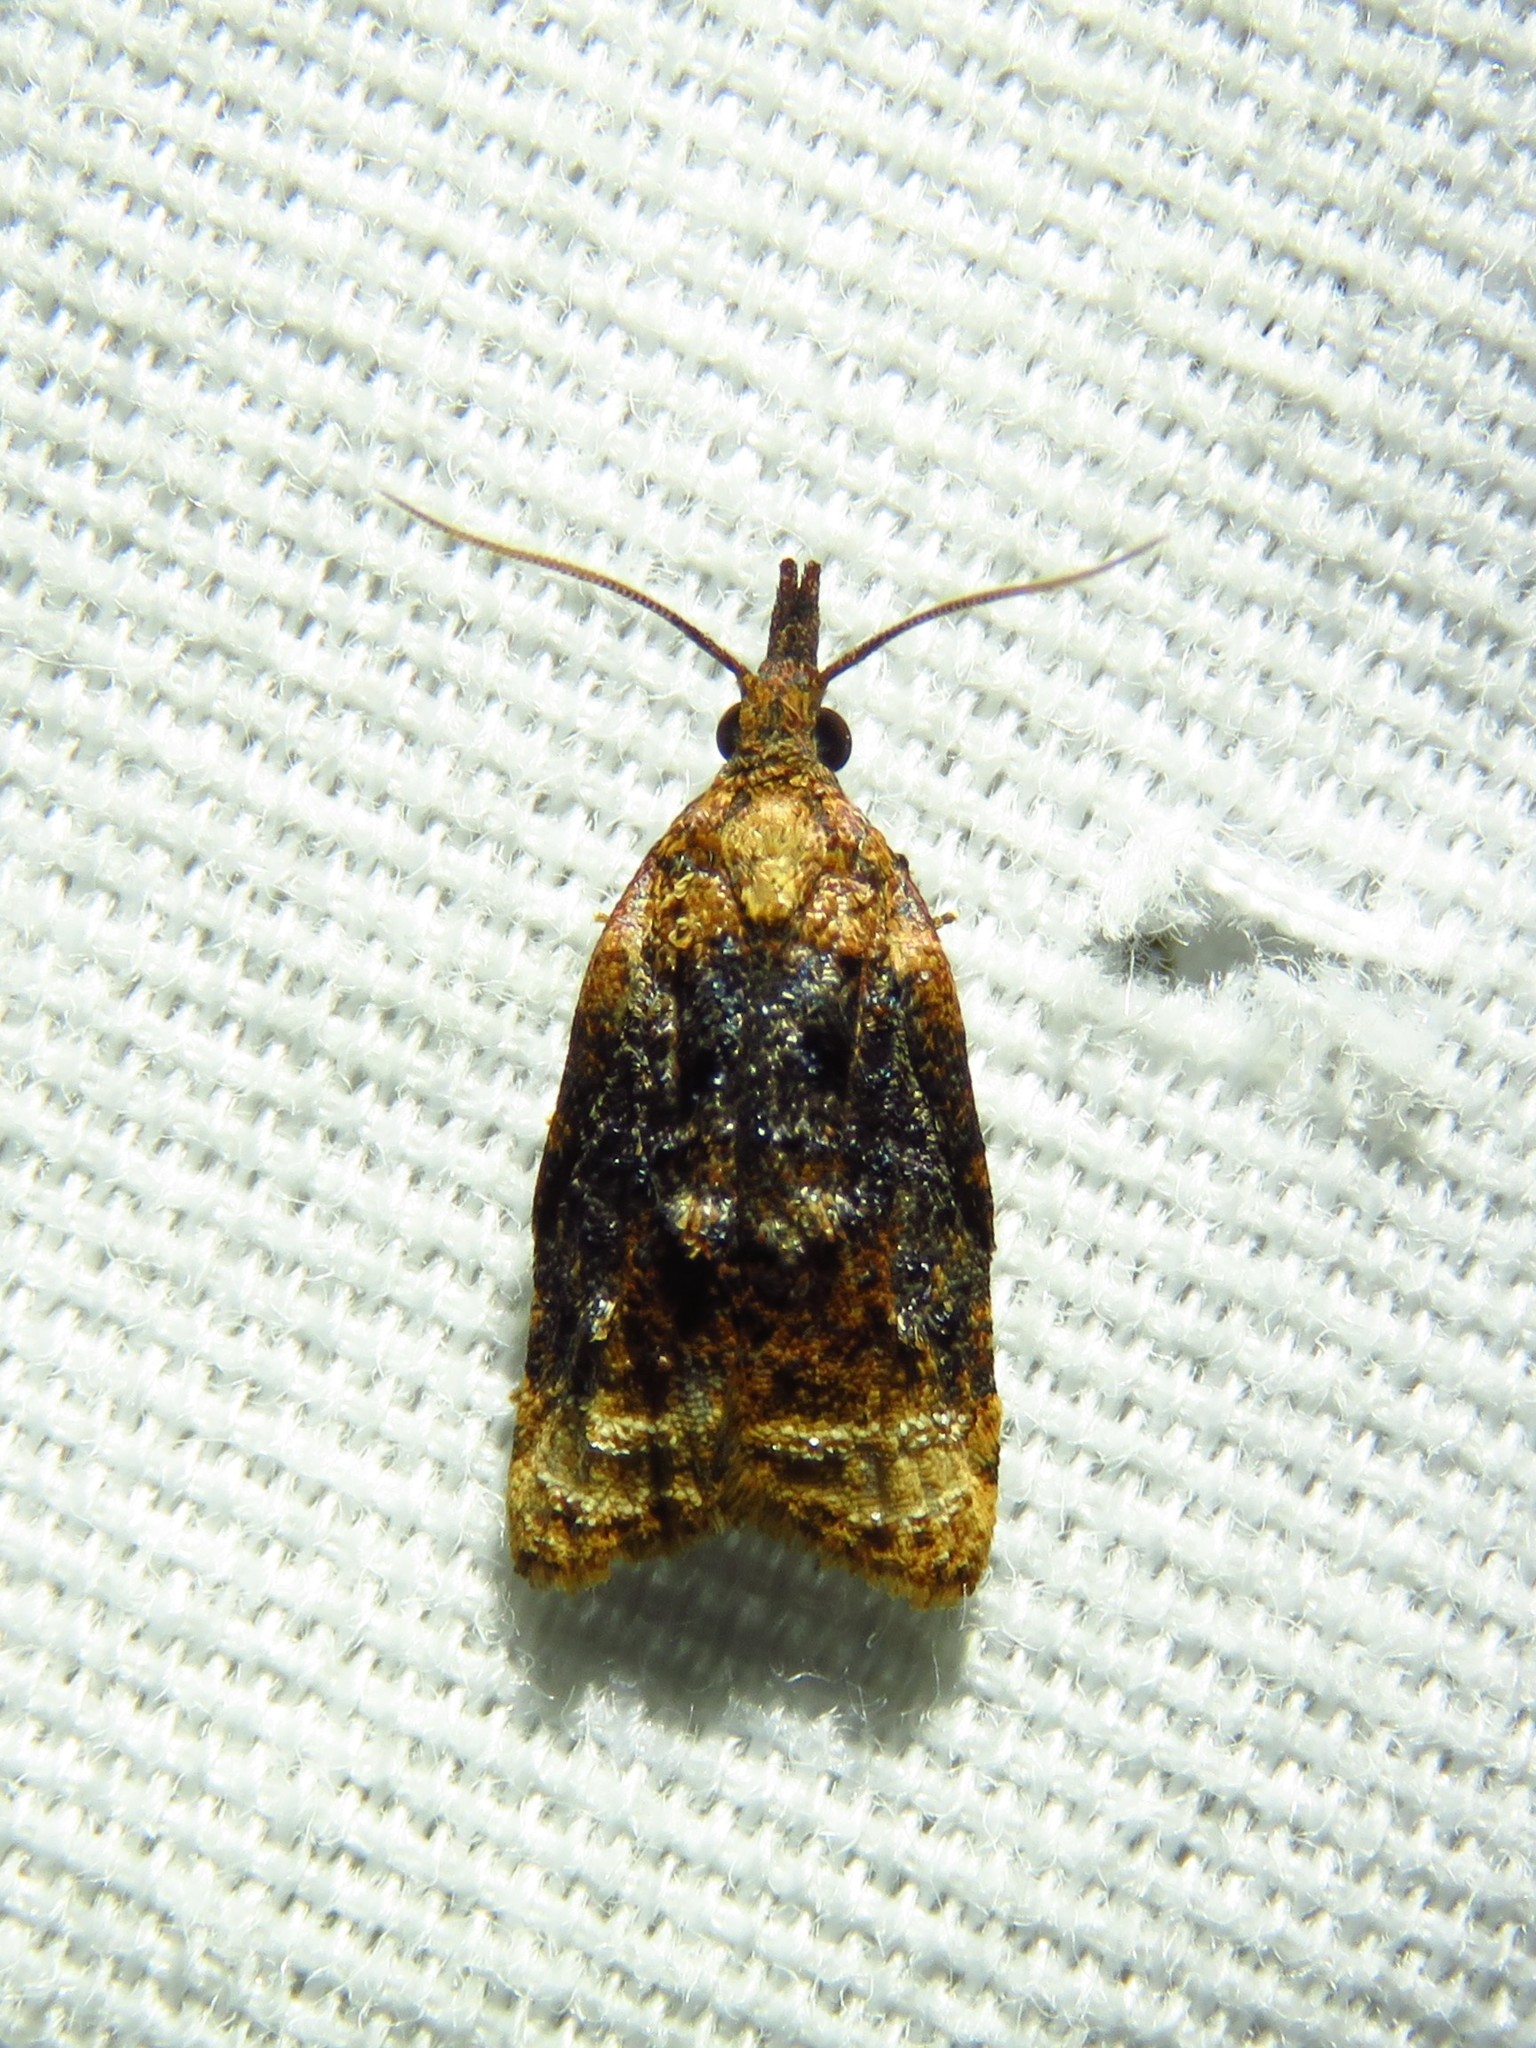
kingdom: Animalia
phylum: Arthropoda
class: Insecta
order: Lepidoptera
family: Tortricidae
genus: Platynota
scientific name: Platynota flavedana
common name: Black-shaded platynota moth
